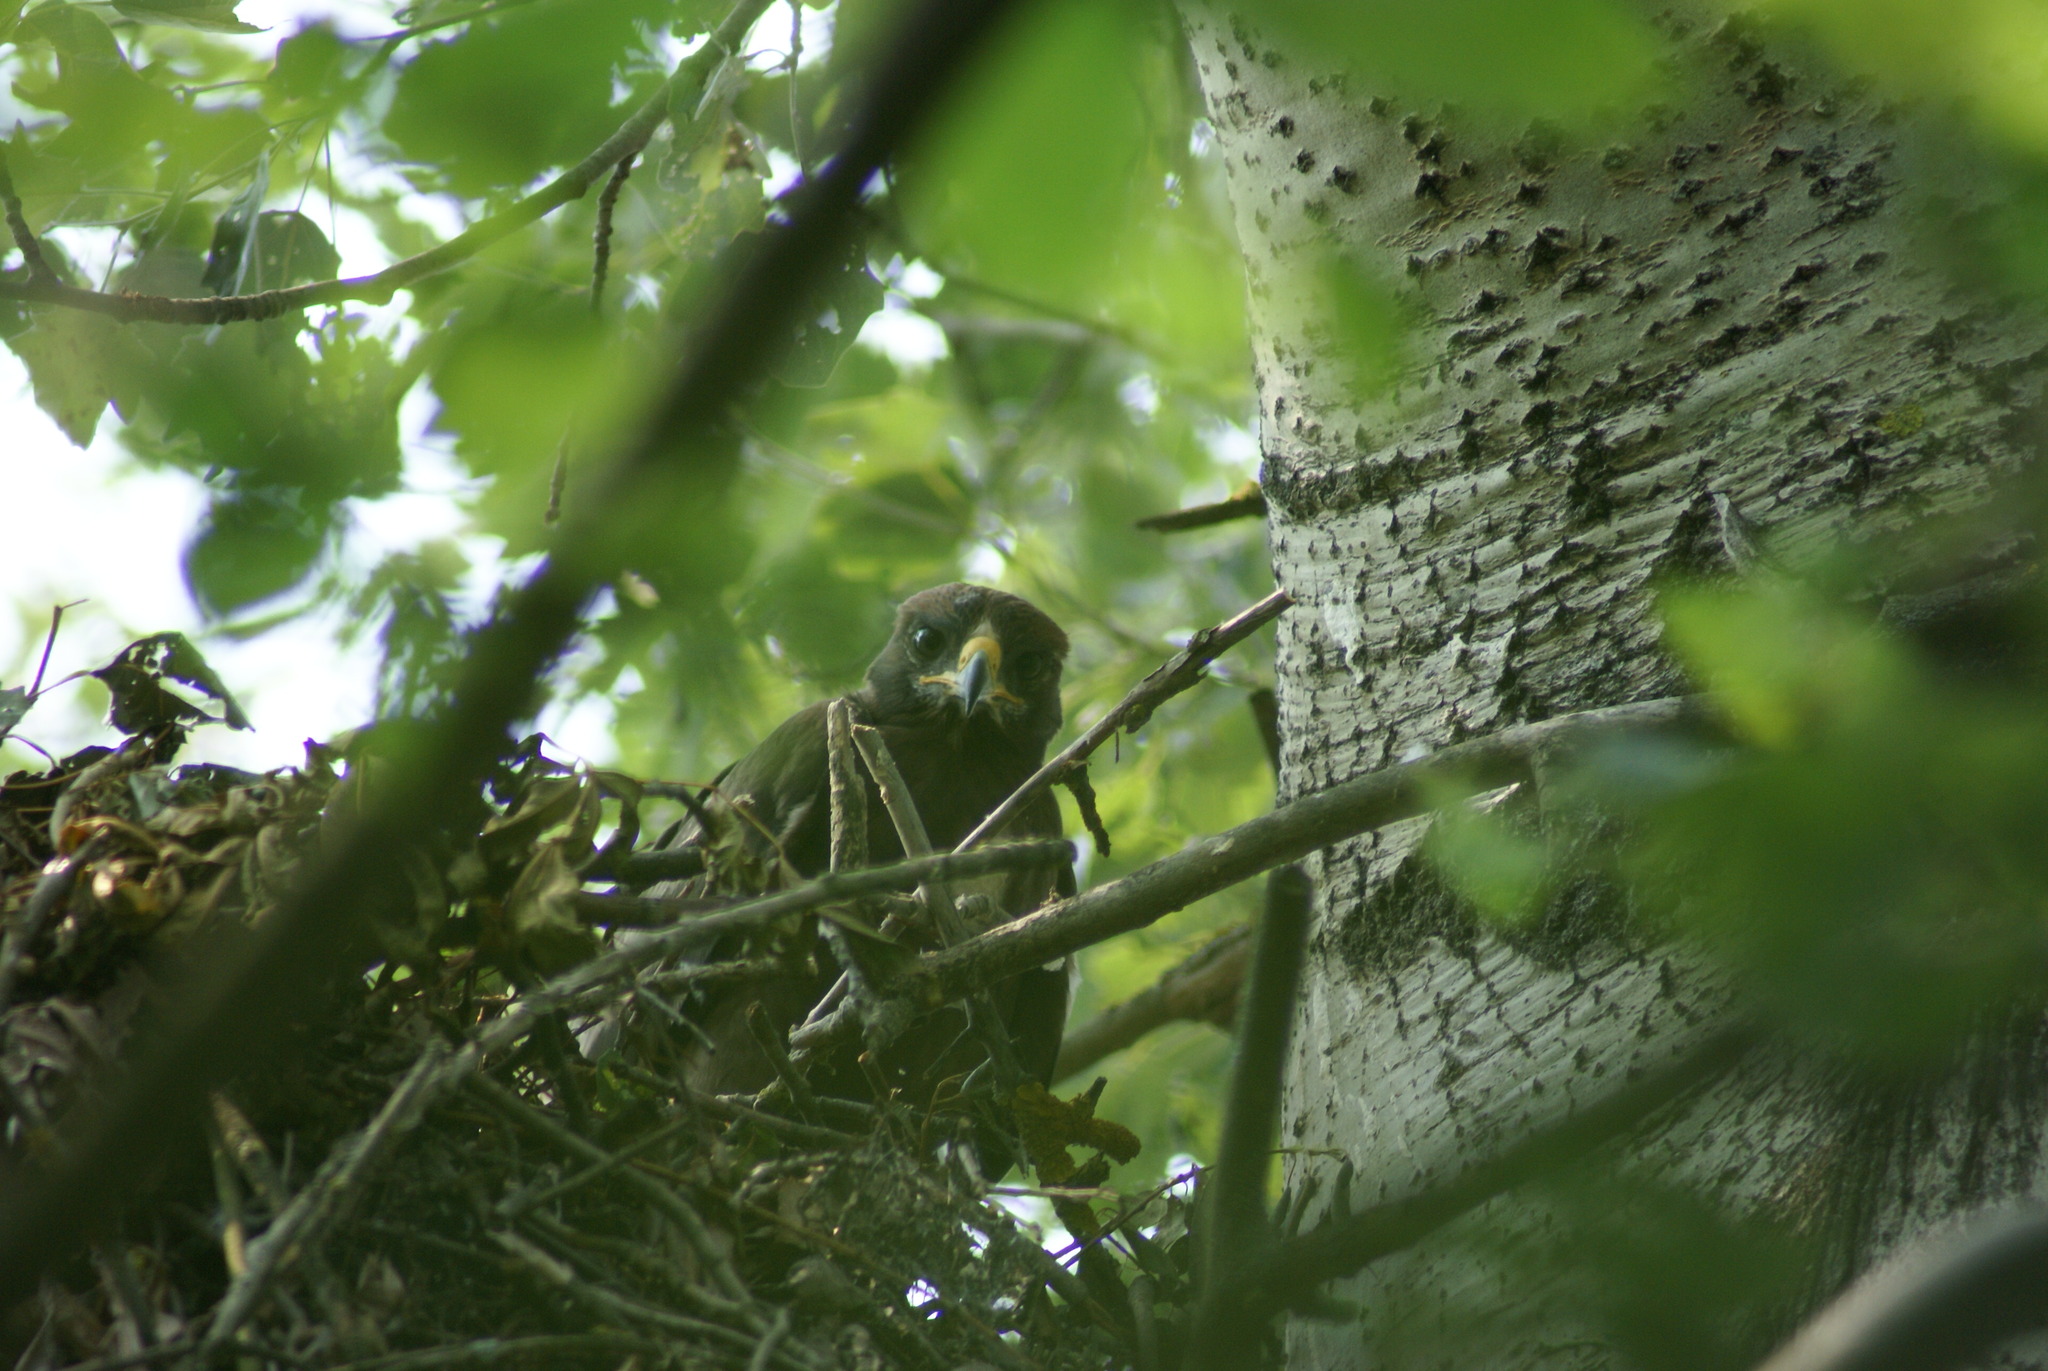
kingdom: Animalia
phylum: Chordata
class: Aves
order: Accipitriformes
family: Accipitridae
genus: Hieraaetus
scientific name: Hieraaetus pennatus
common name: Booted eagle
